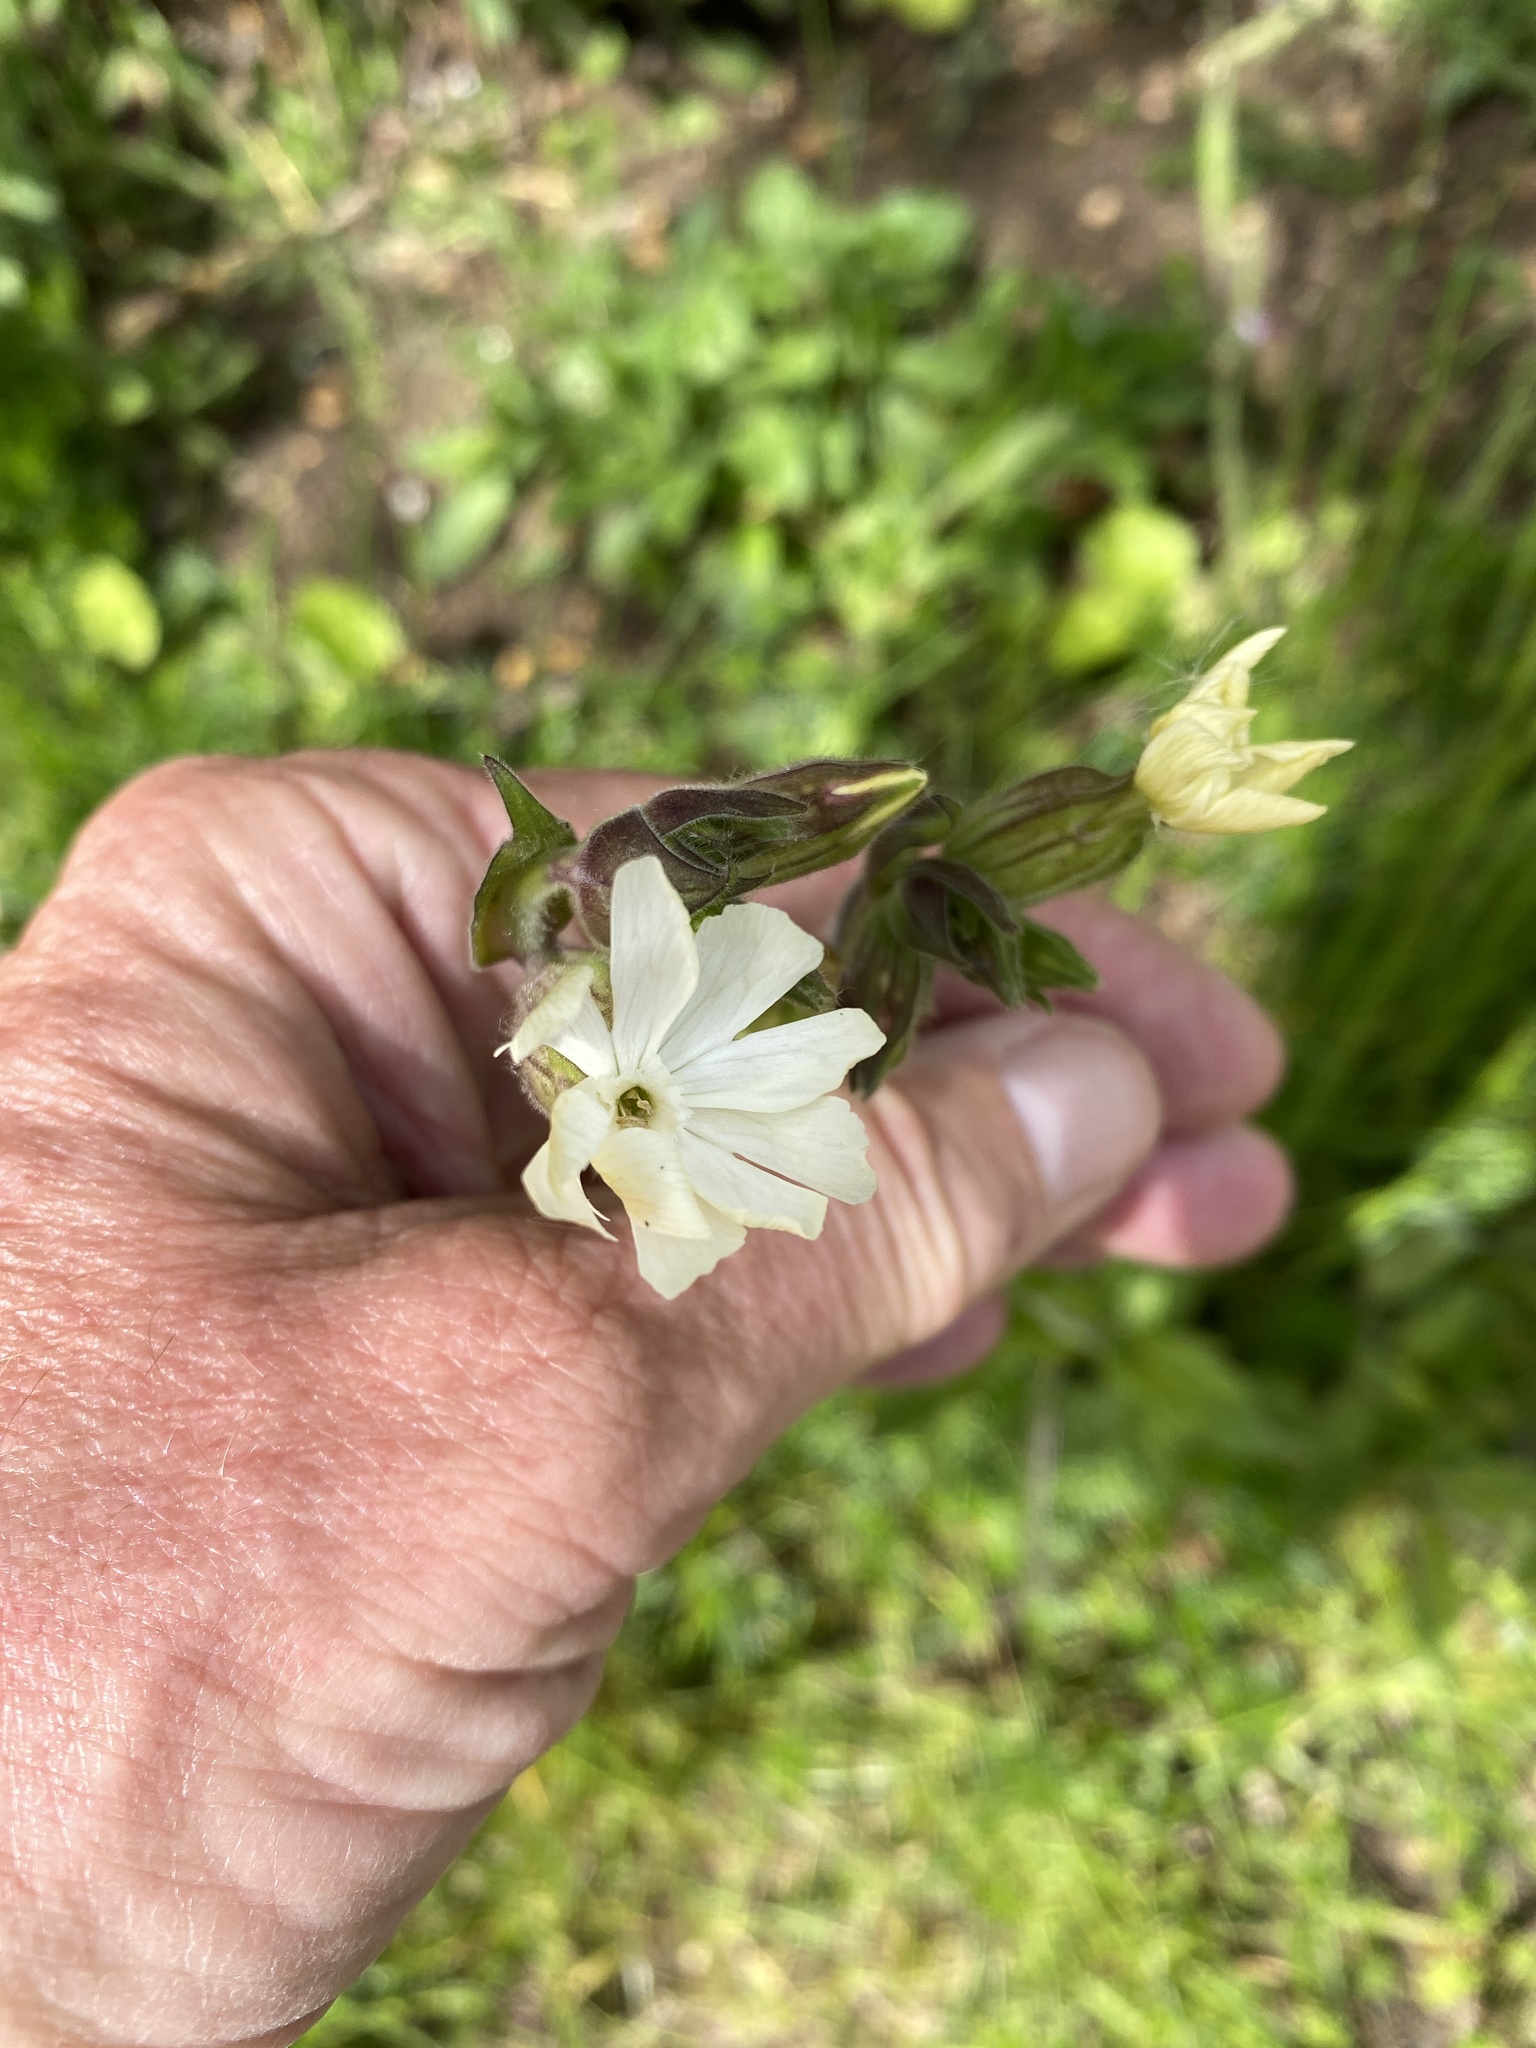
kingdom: Plantae
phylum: Tracheophyta
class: Magnoliopsida
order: Caryophyllales
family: Caryophyllaceae
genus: Silene
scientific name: Silene latifolia
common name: White campion
